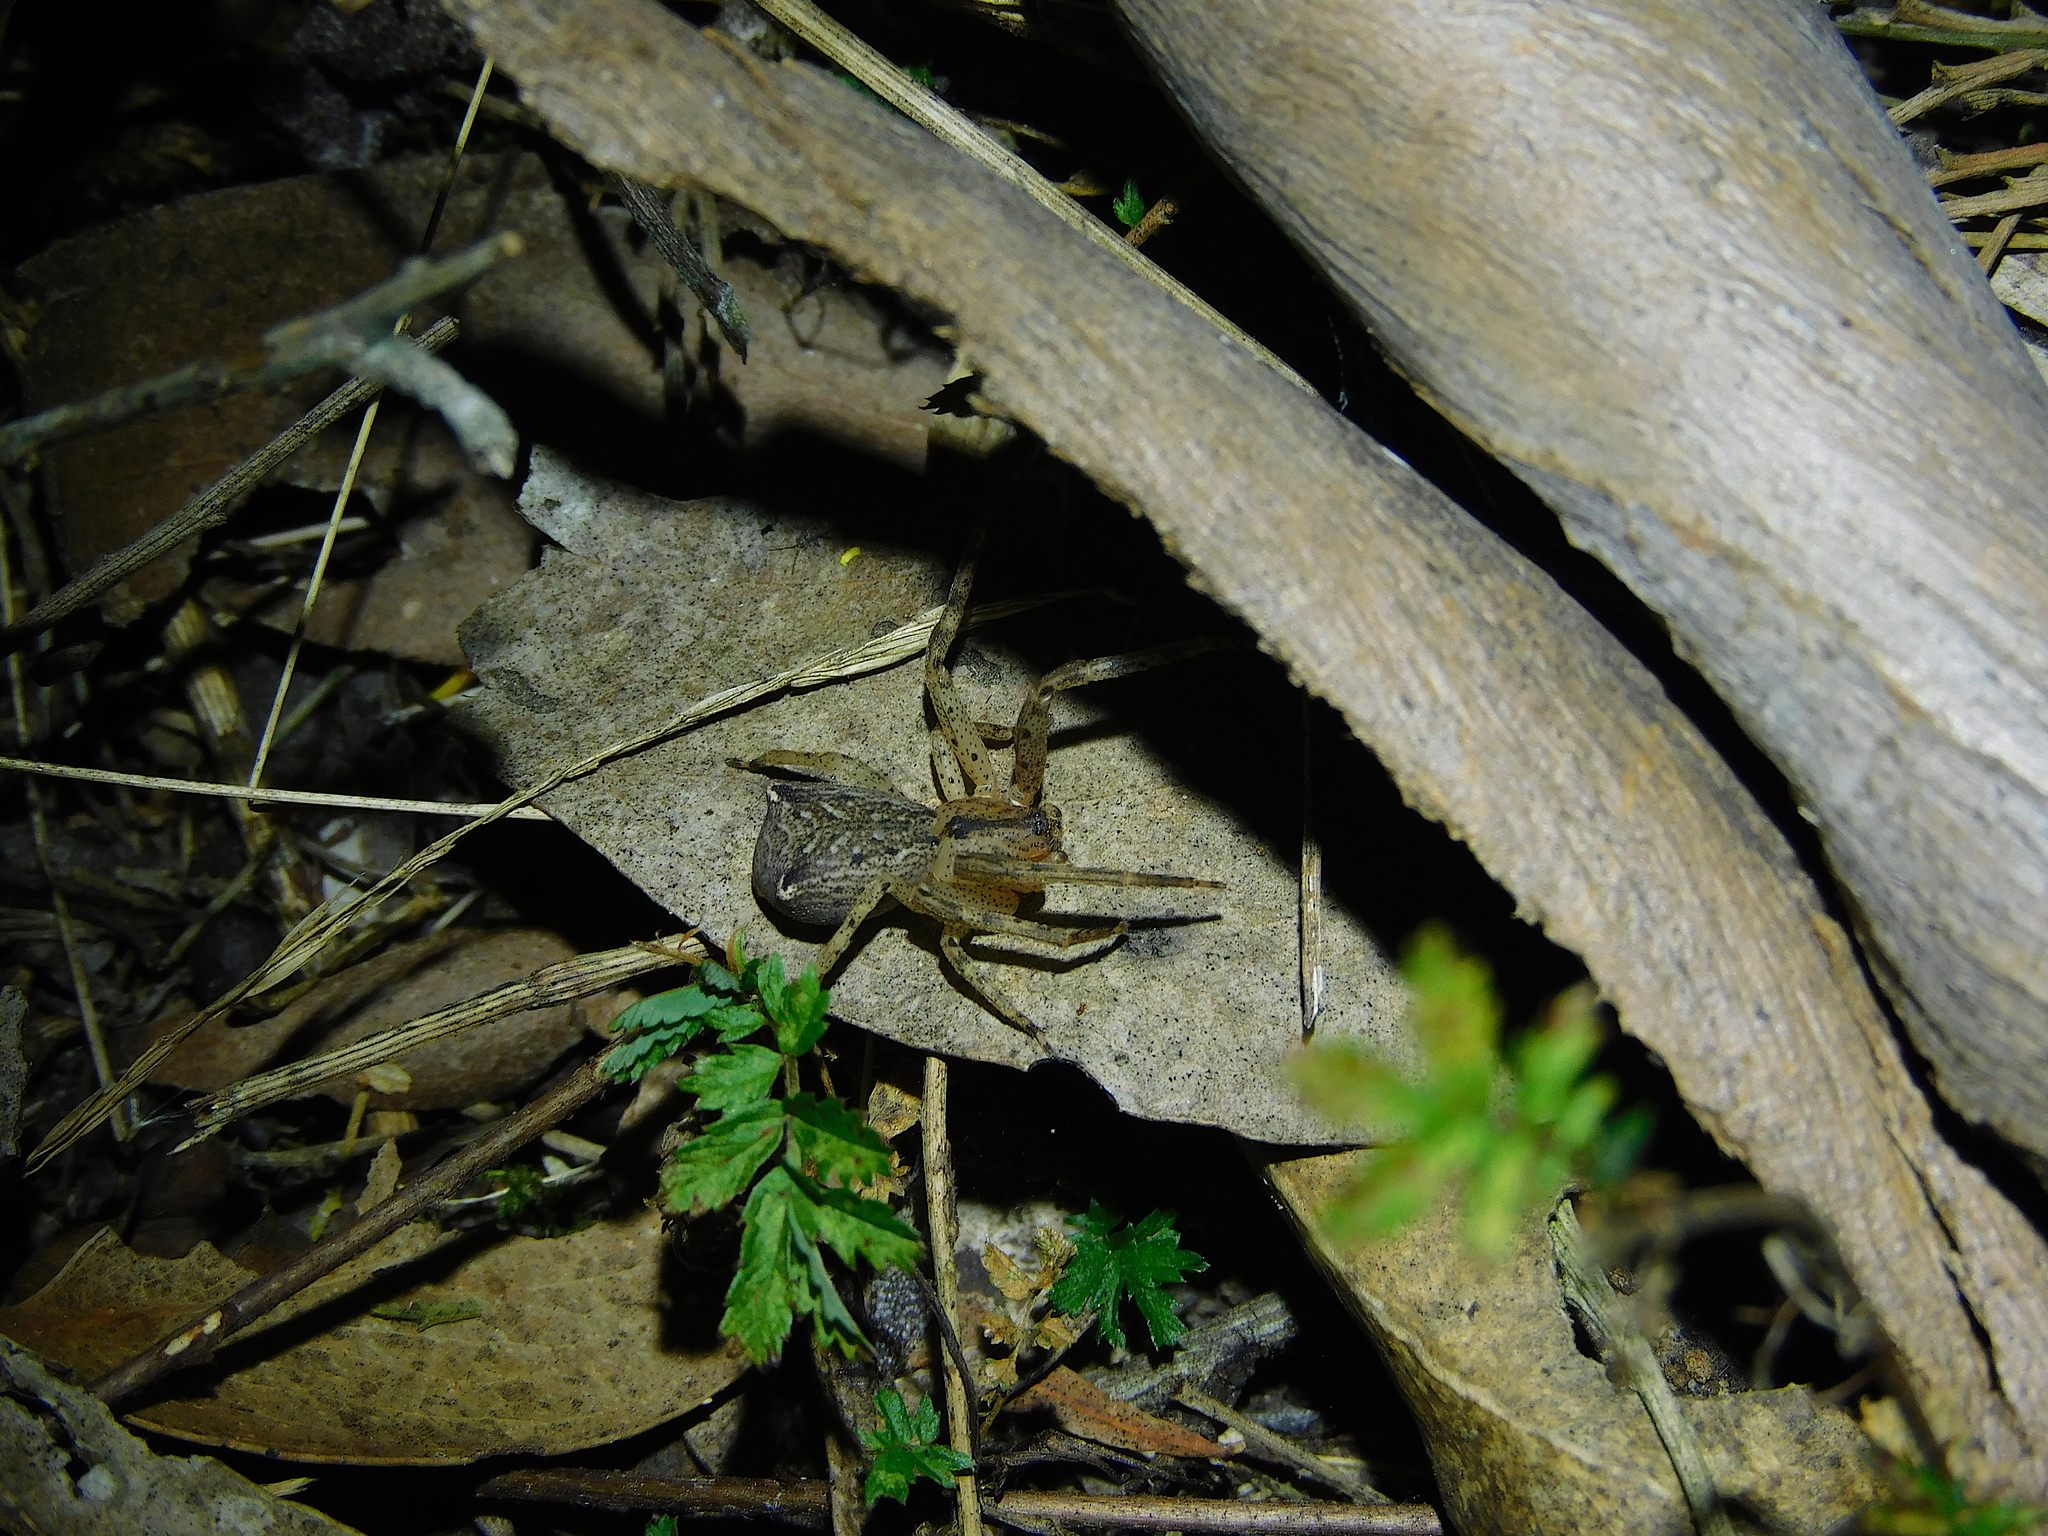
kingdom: Animalia
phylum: Arthropoda
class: Arachnida
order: Araneae
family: Thomisidae
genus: Sidymella
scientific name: Sidymella trapezia
